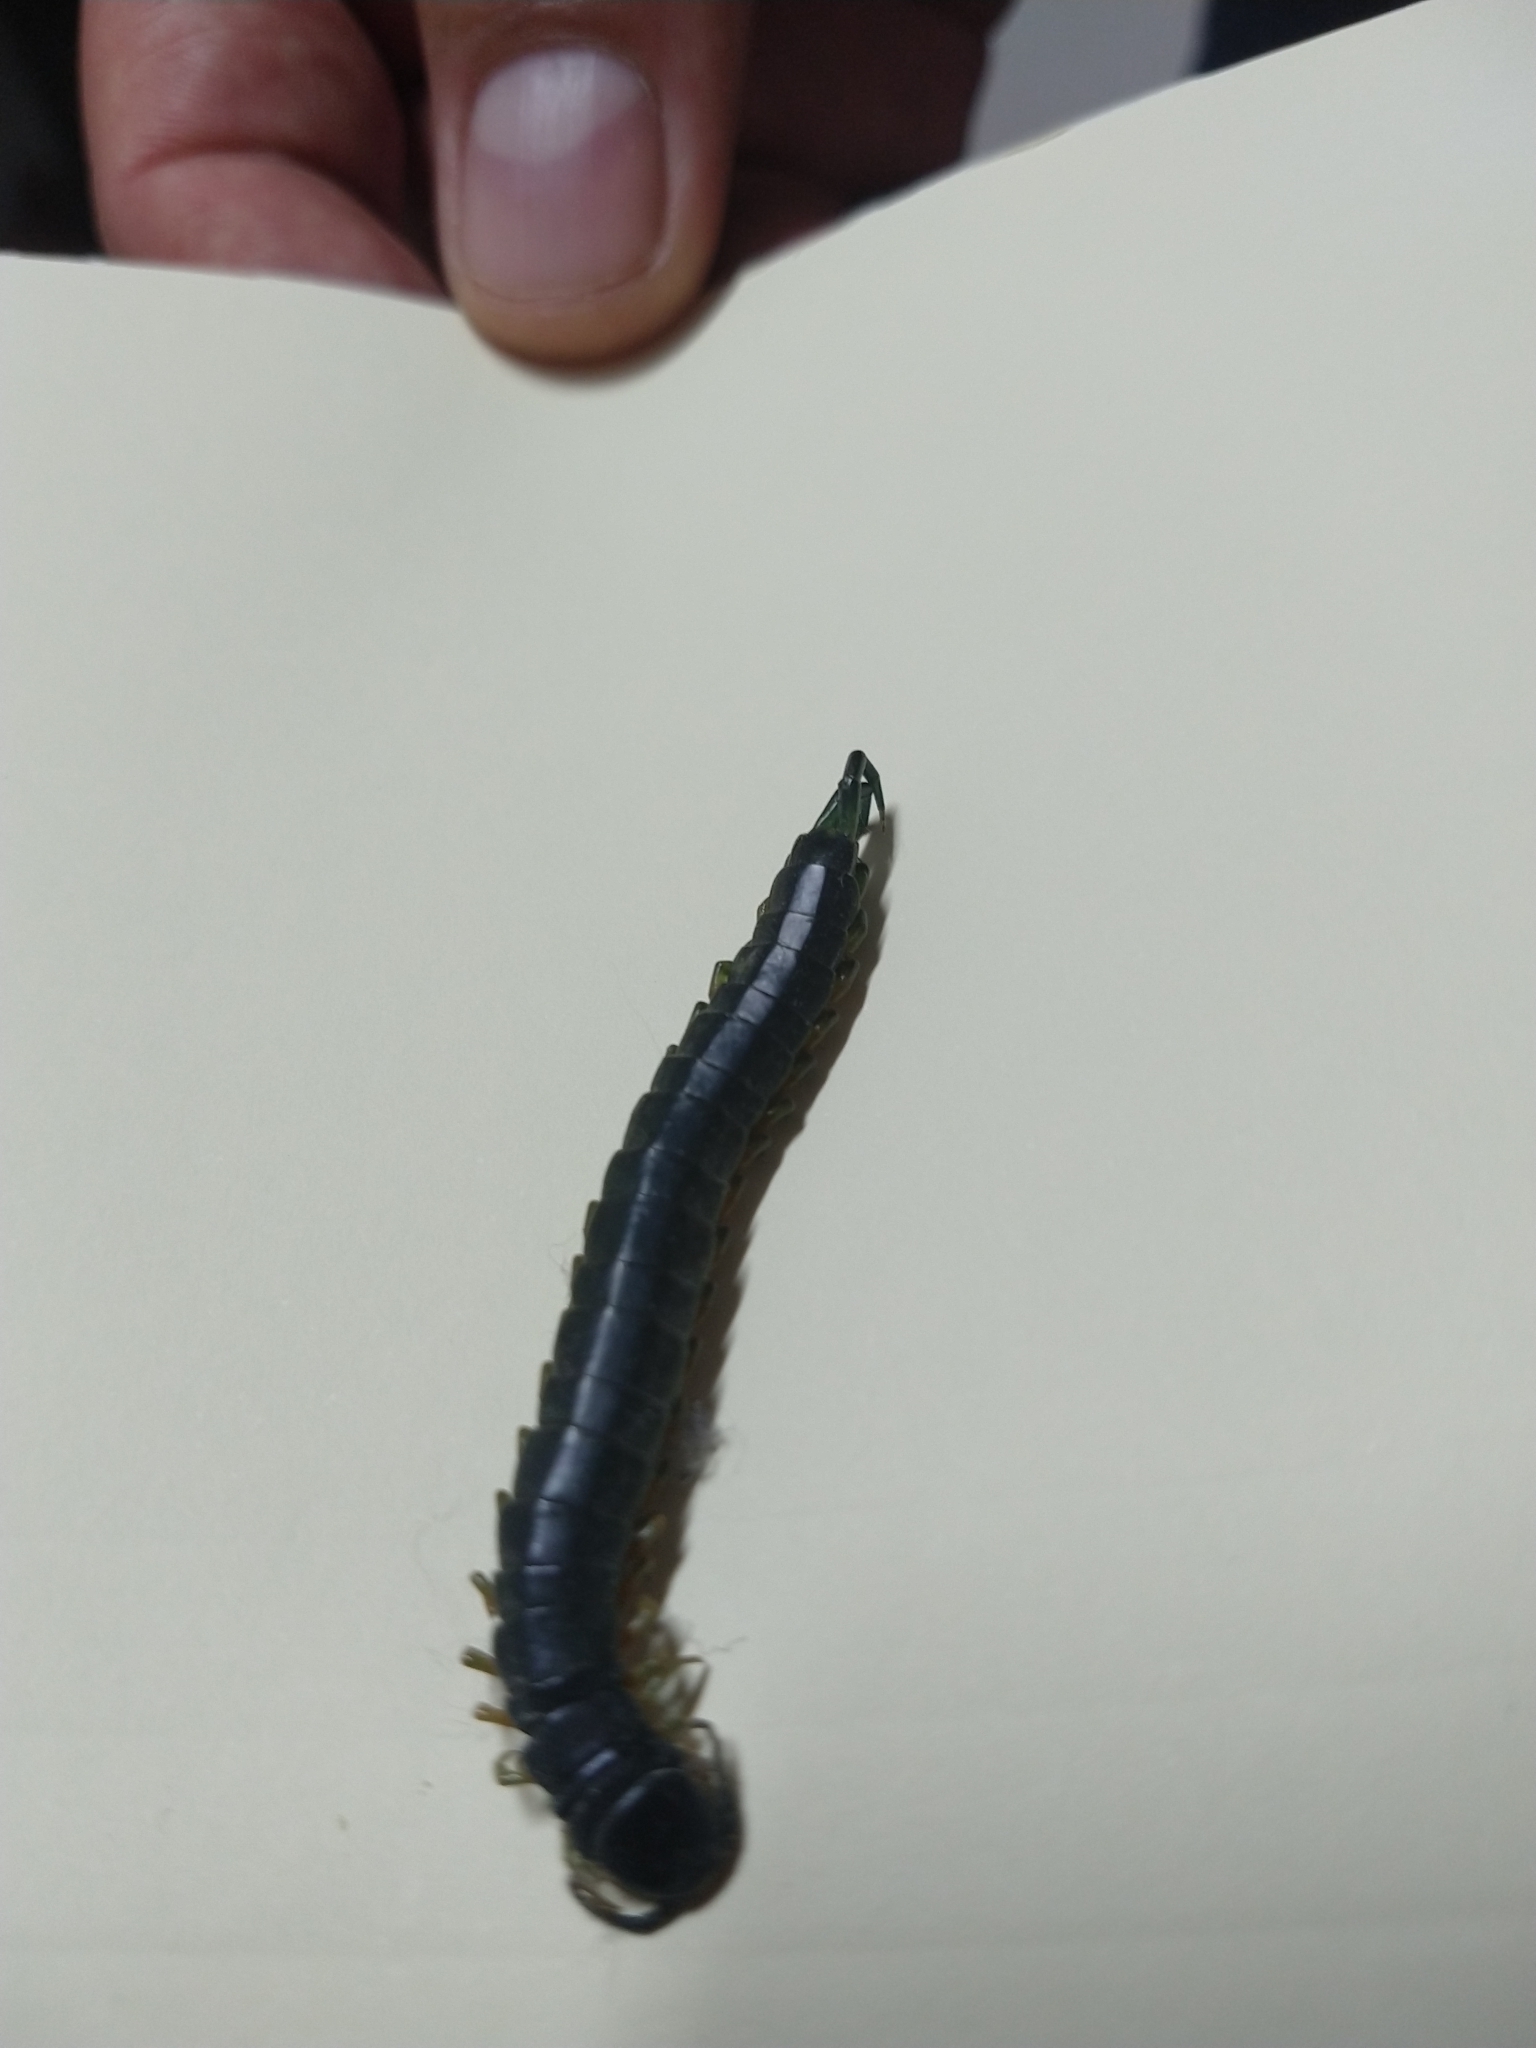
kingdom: Animalia
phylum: Arthropoda
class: Chilopoda
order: Scolopendromorpha
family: Scolopendridae
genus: Scolopendra
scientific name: Scolopendra viridis
